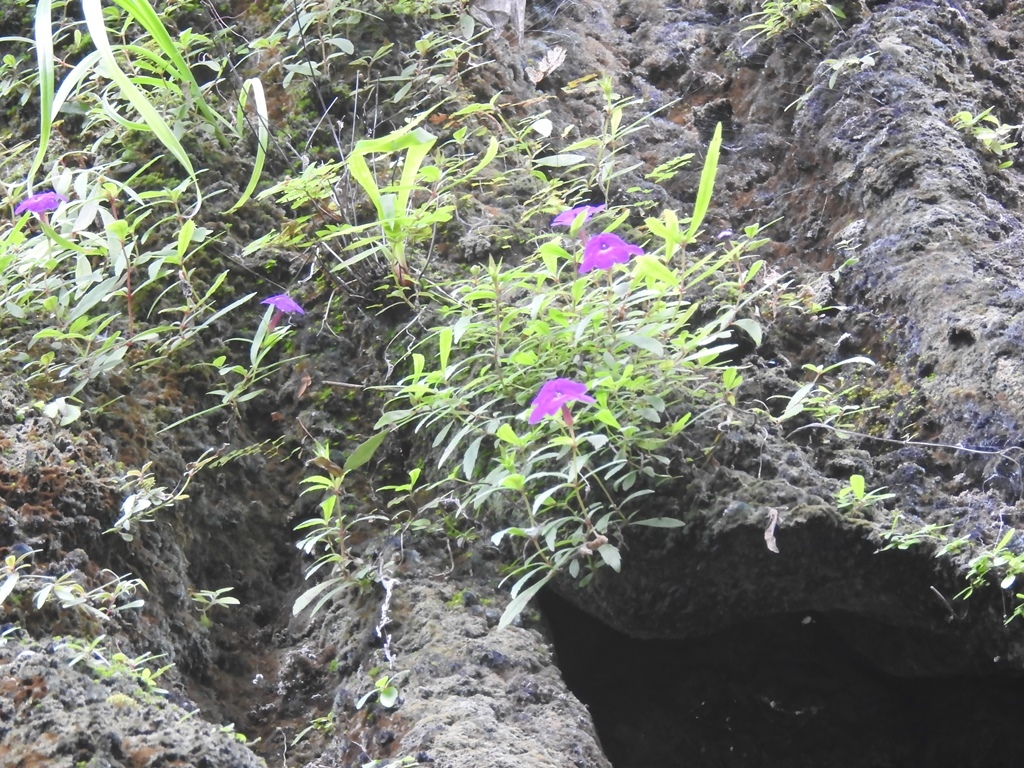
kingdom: Plantae
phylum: Tracheophyta
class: Magnoliopsida
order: Lamiales
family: Gesneriaceae
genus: Achimenes
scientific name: Achimenes cettoana
